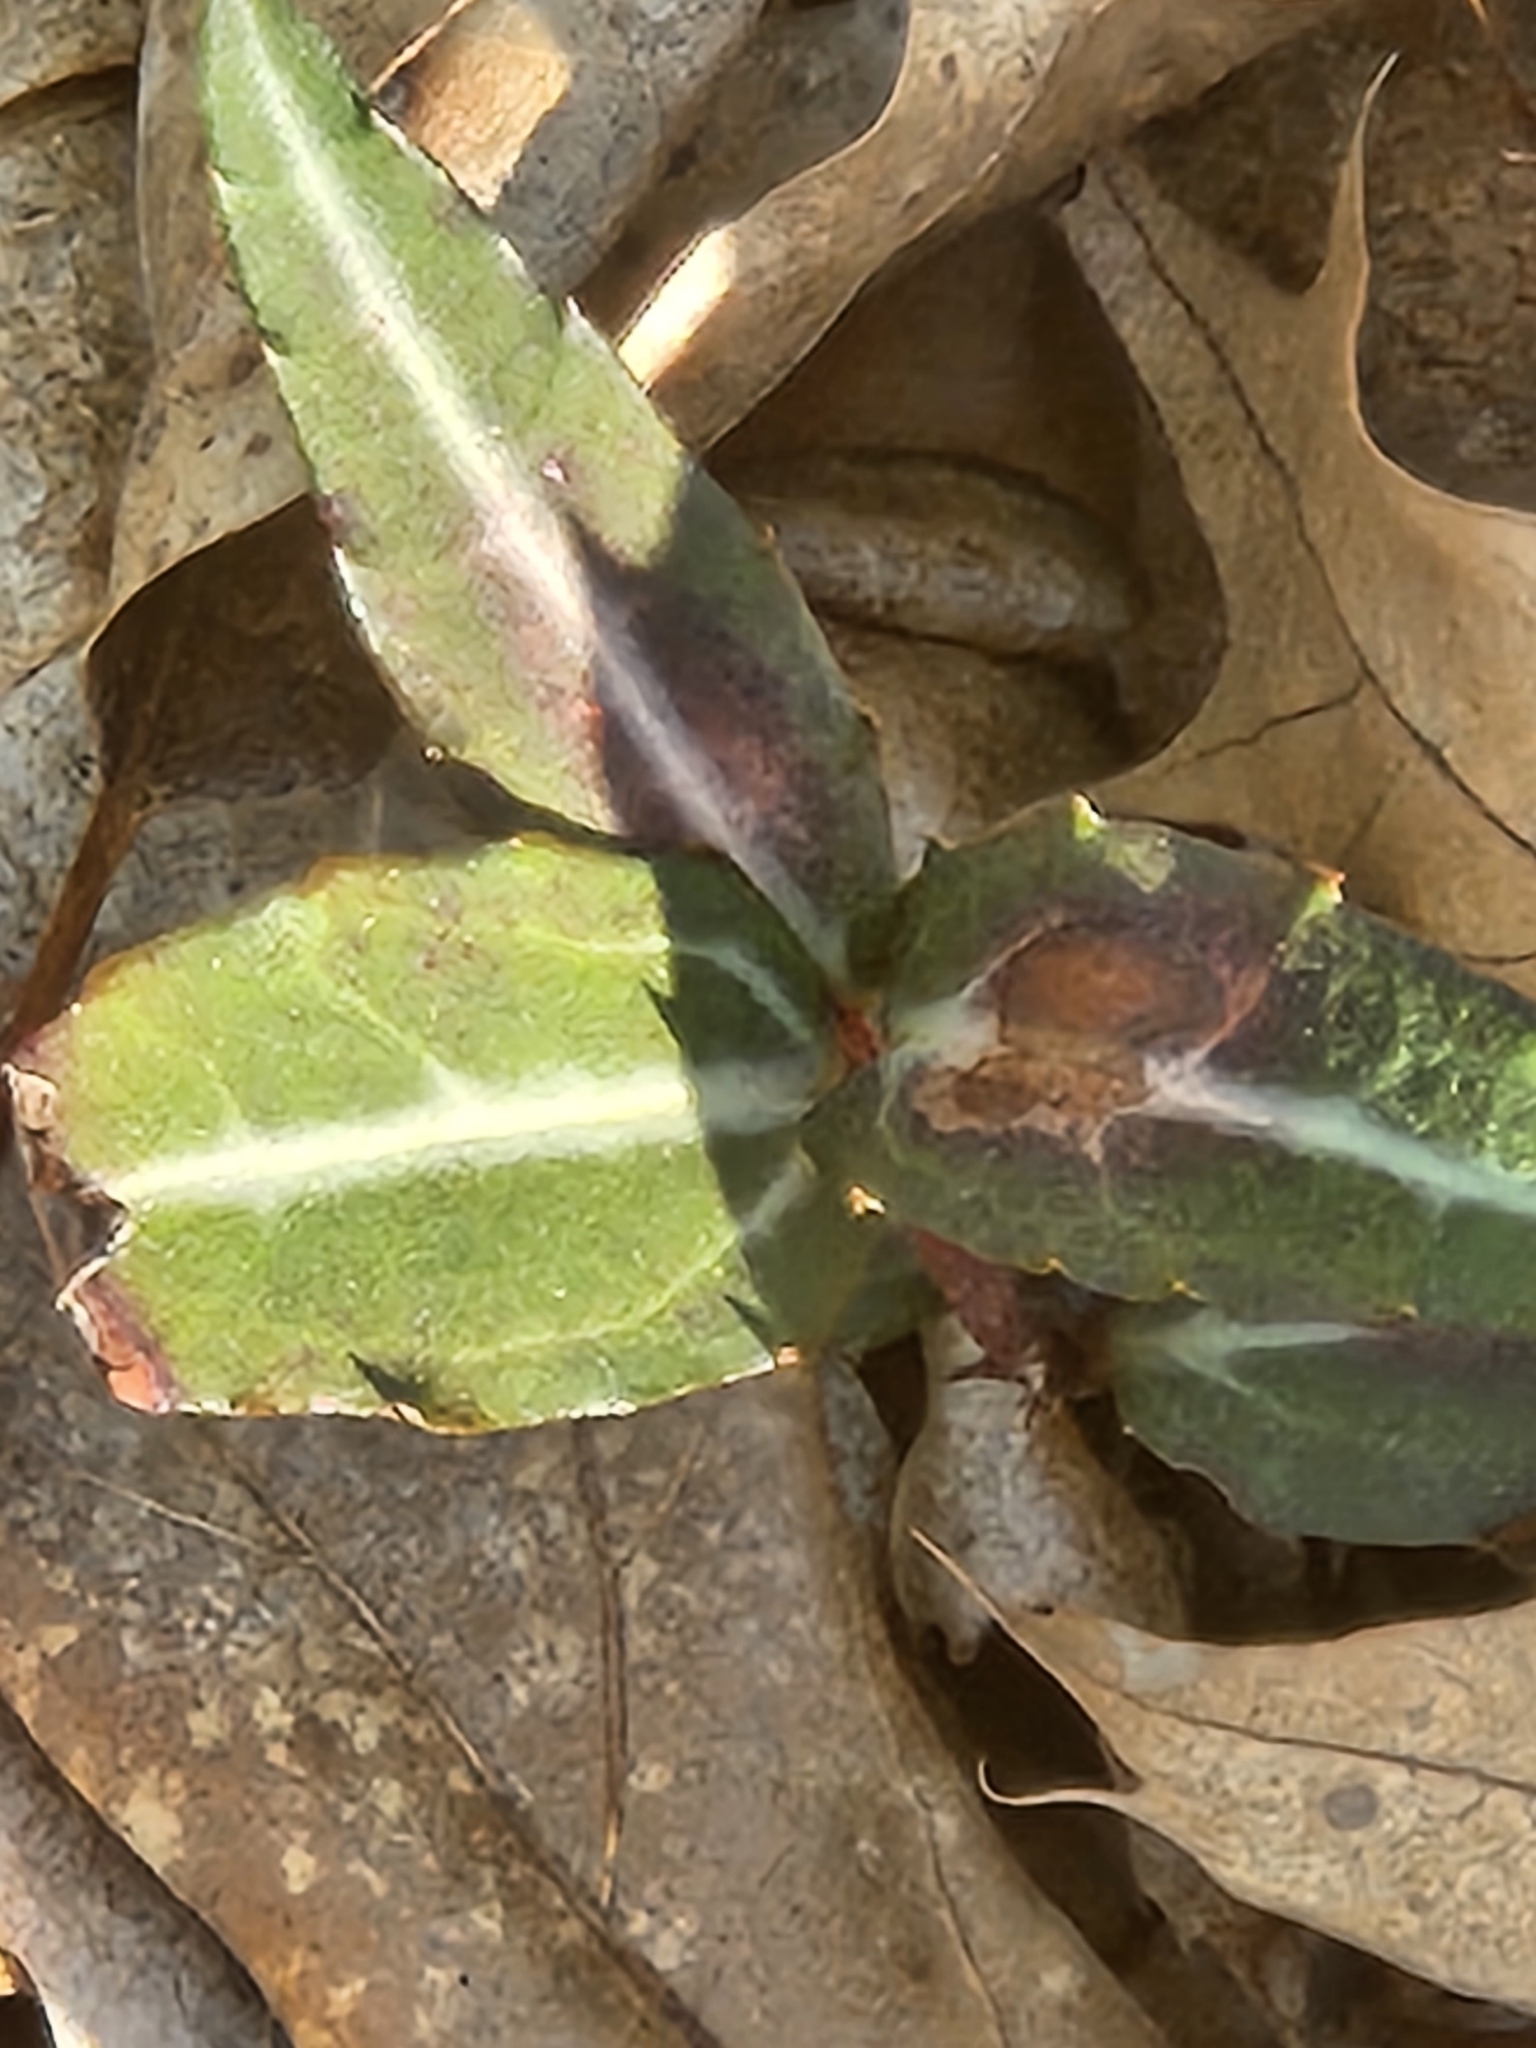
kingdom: Plantae
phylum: Tracheophyta
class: Magnoliopsida
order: Ericales
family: Ericaceae
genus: Chimaphila
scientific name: Chimaphila maculata
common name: Spotted pipsissewa
